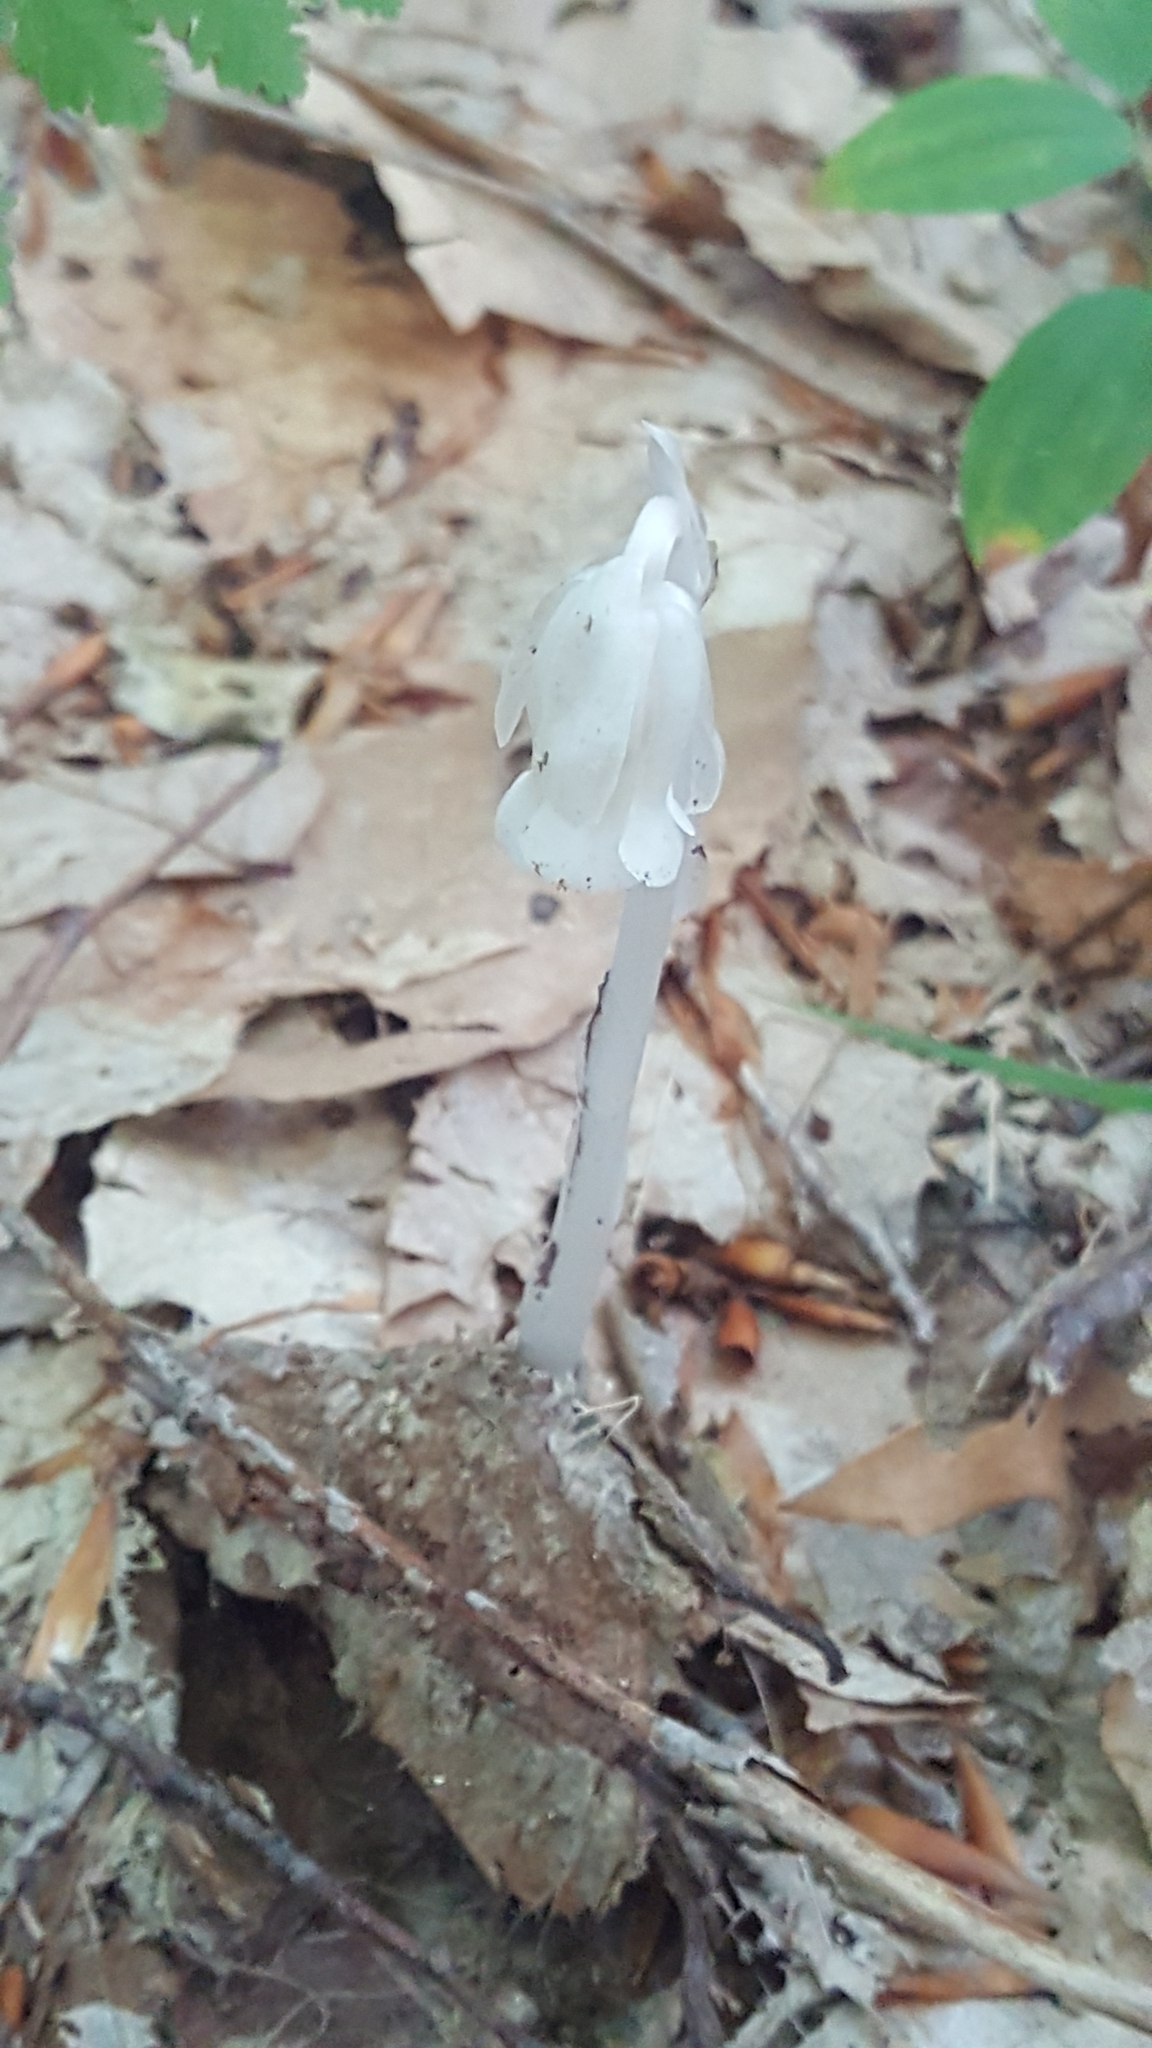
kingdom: Plantae
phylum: Tracheophyta
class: Magnoliopsida
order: Ericales
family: Ericaceae
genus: Monotropa
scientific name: Monotropa uniflora
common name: Convulsion root
